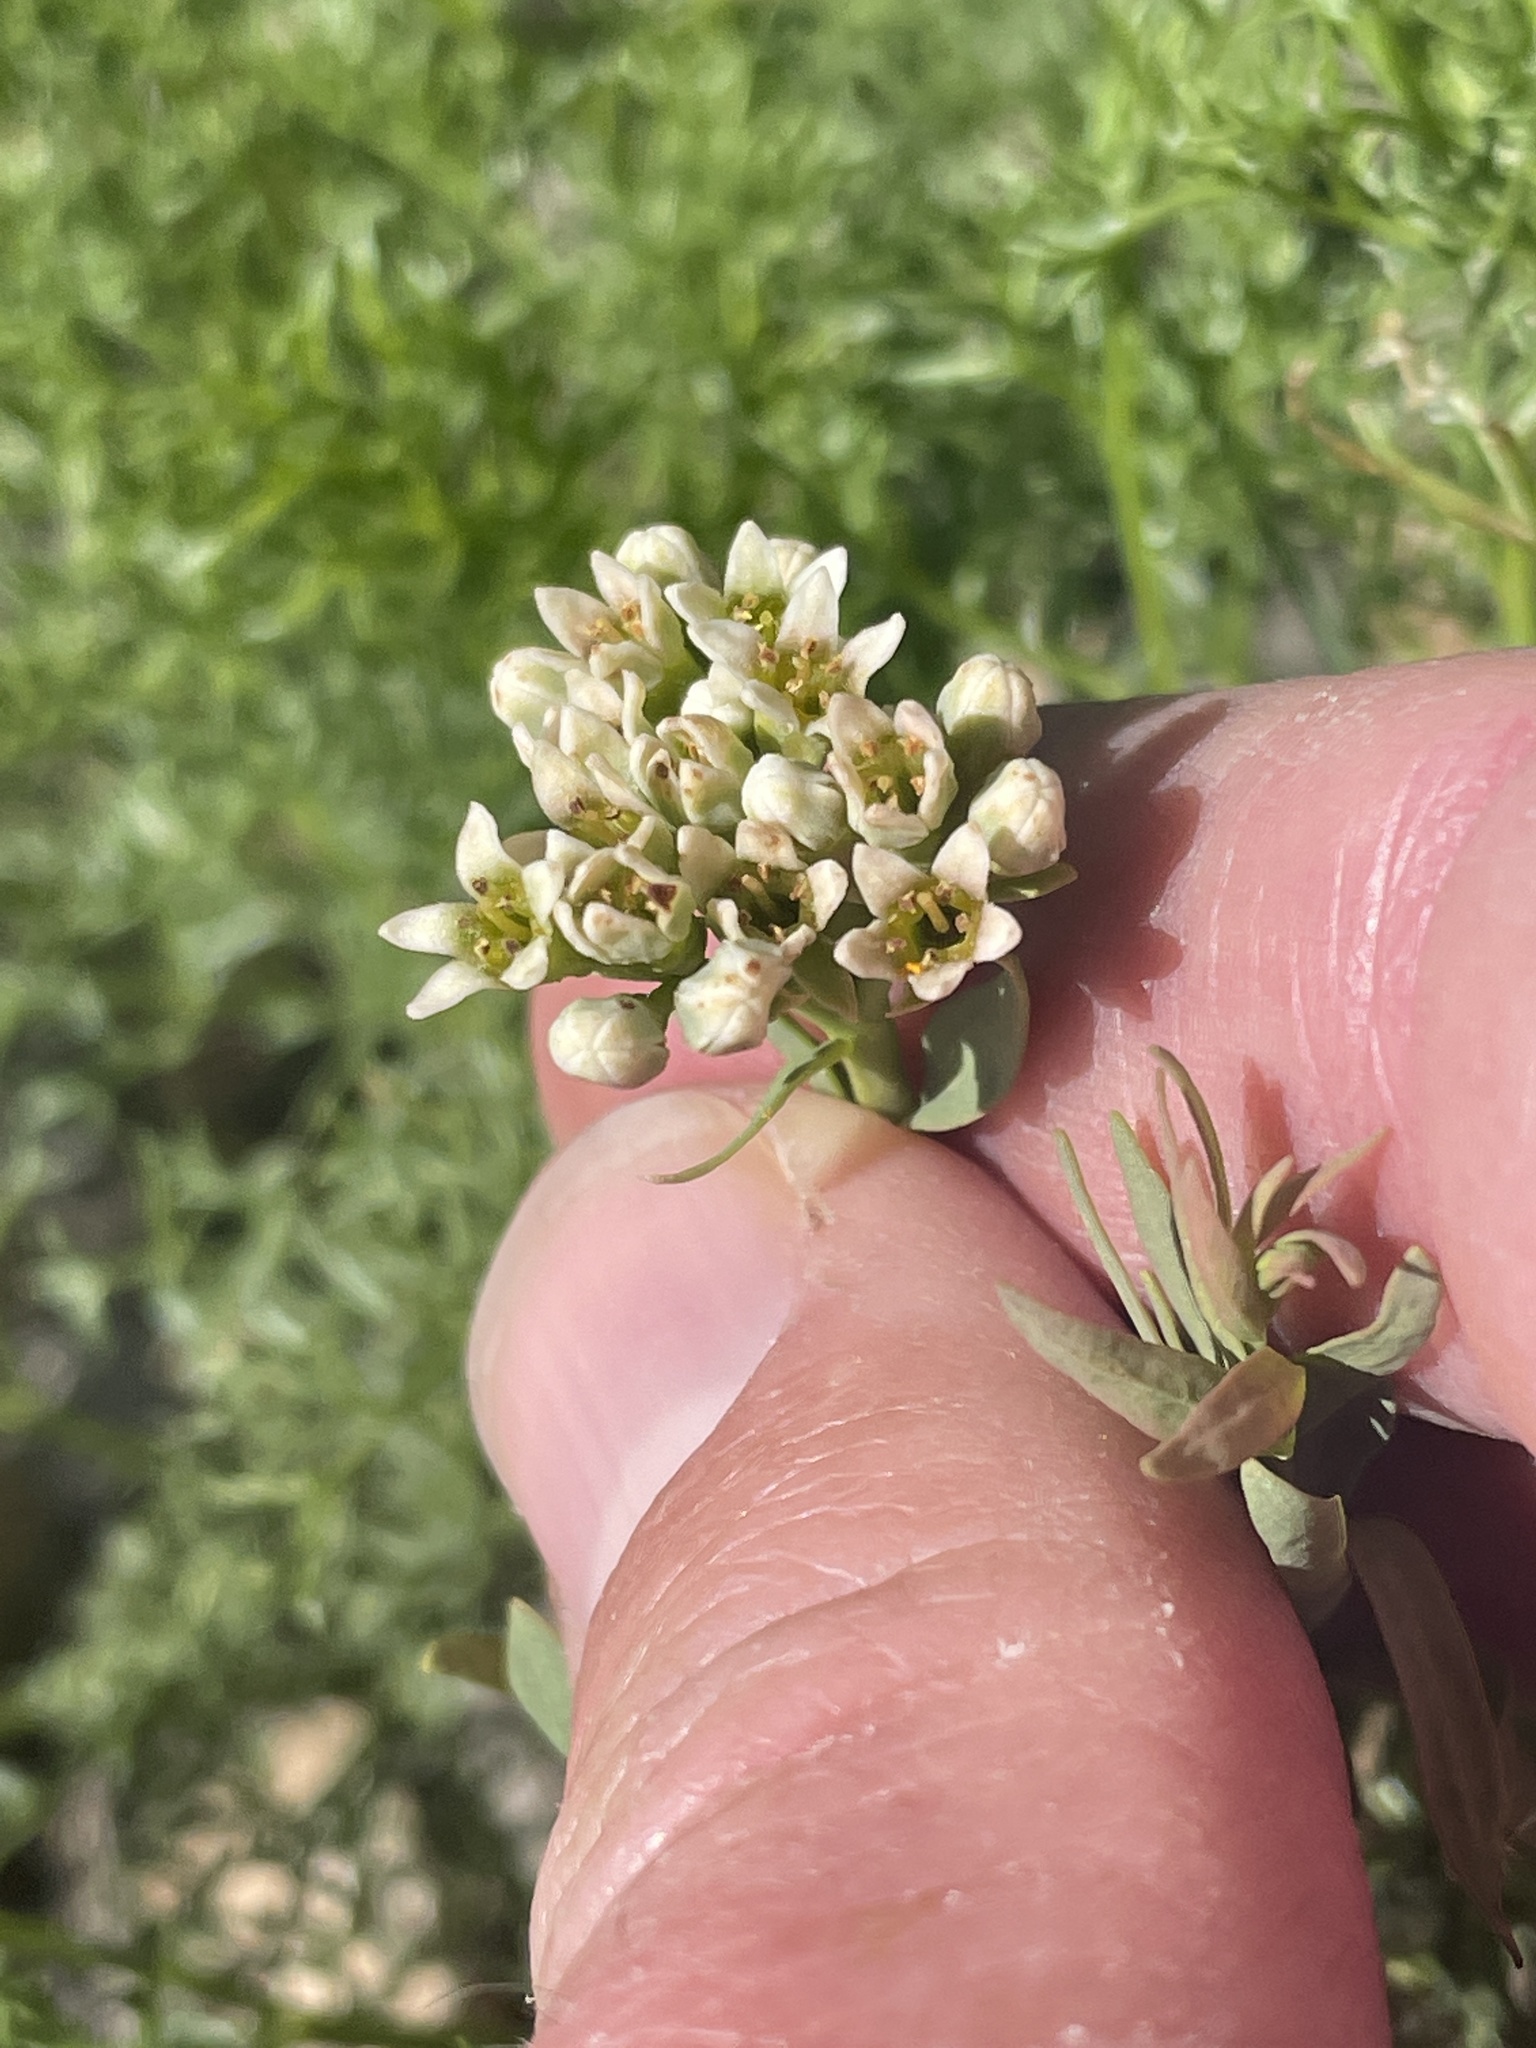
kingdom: Plantae
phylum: Tracheophyta
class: Magnoliopsida
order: Santalales
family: Comandraceae
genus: Comandra
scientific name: Comandra umbellata
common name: Bastard toadflax
